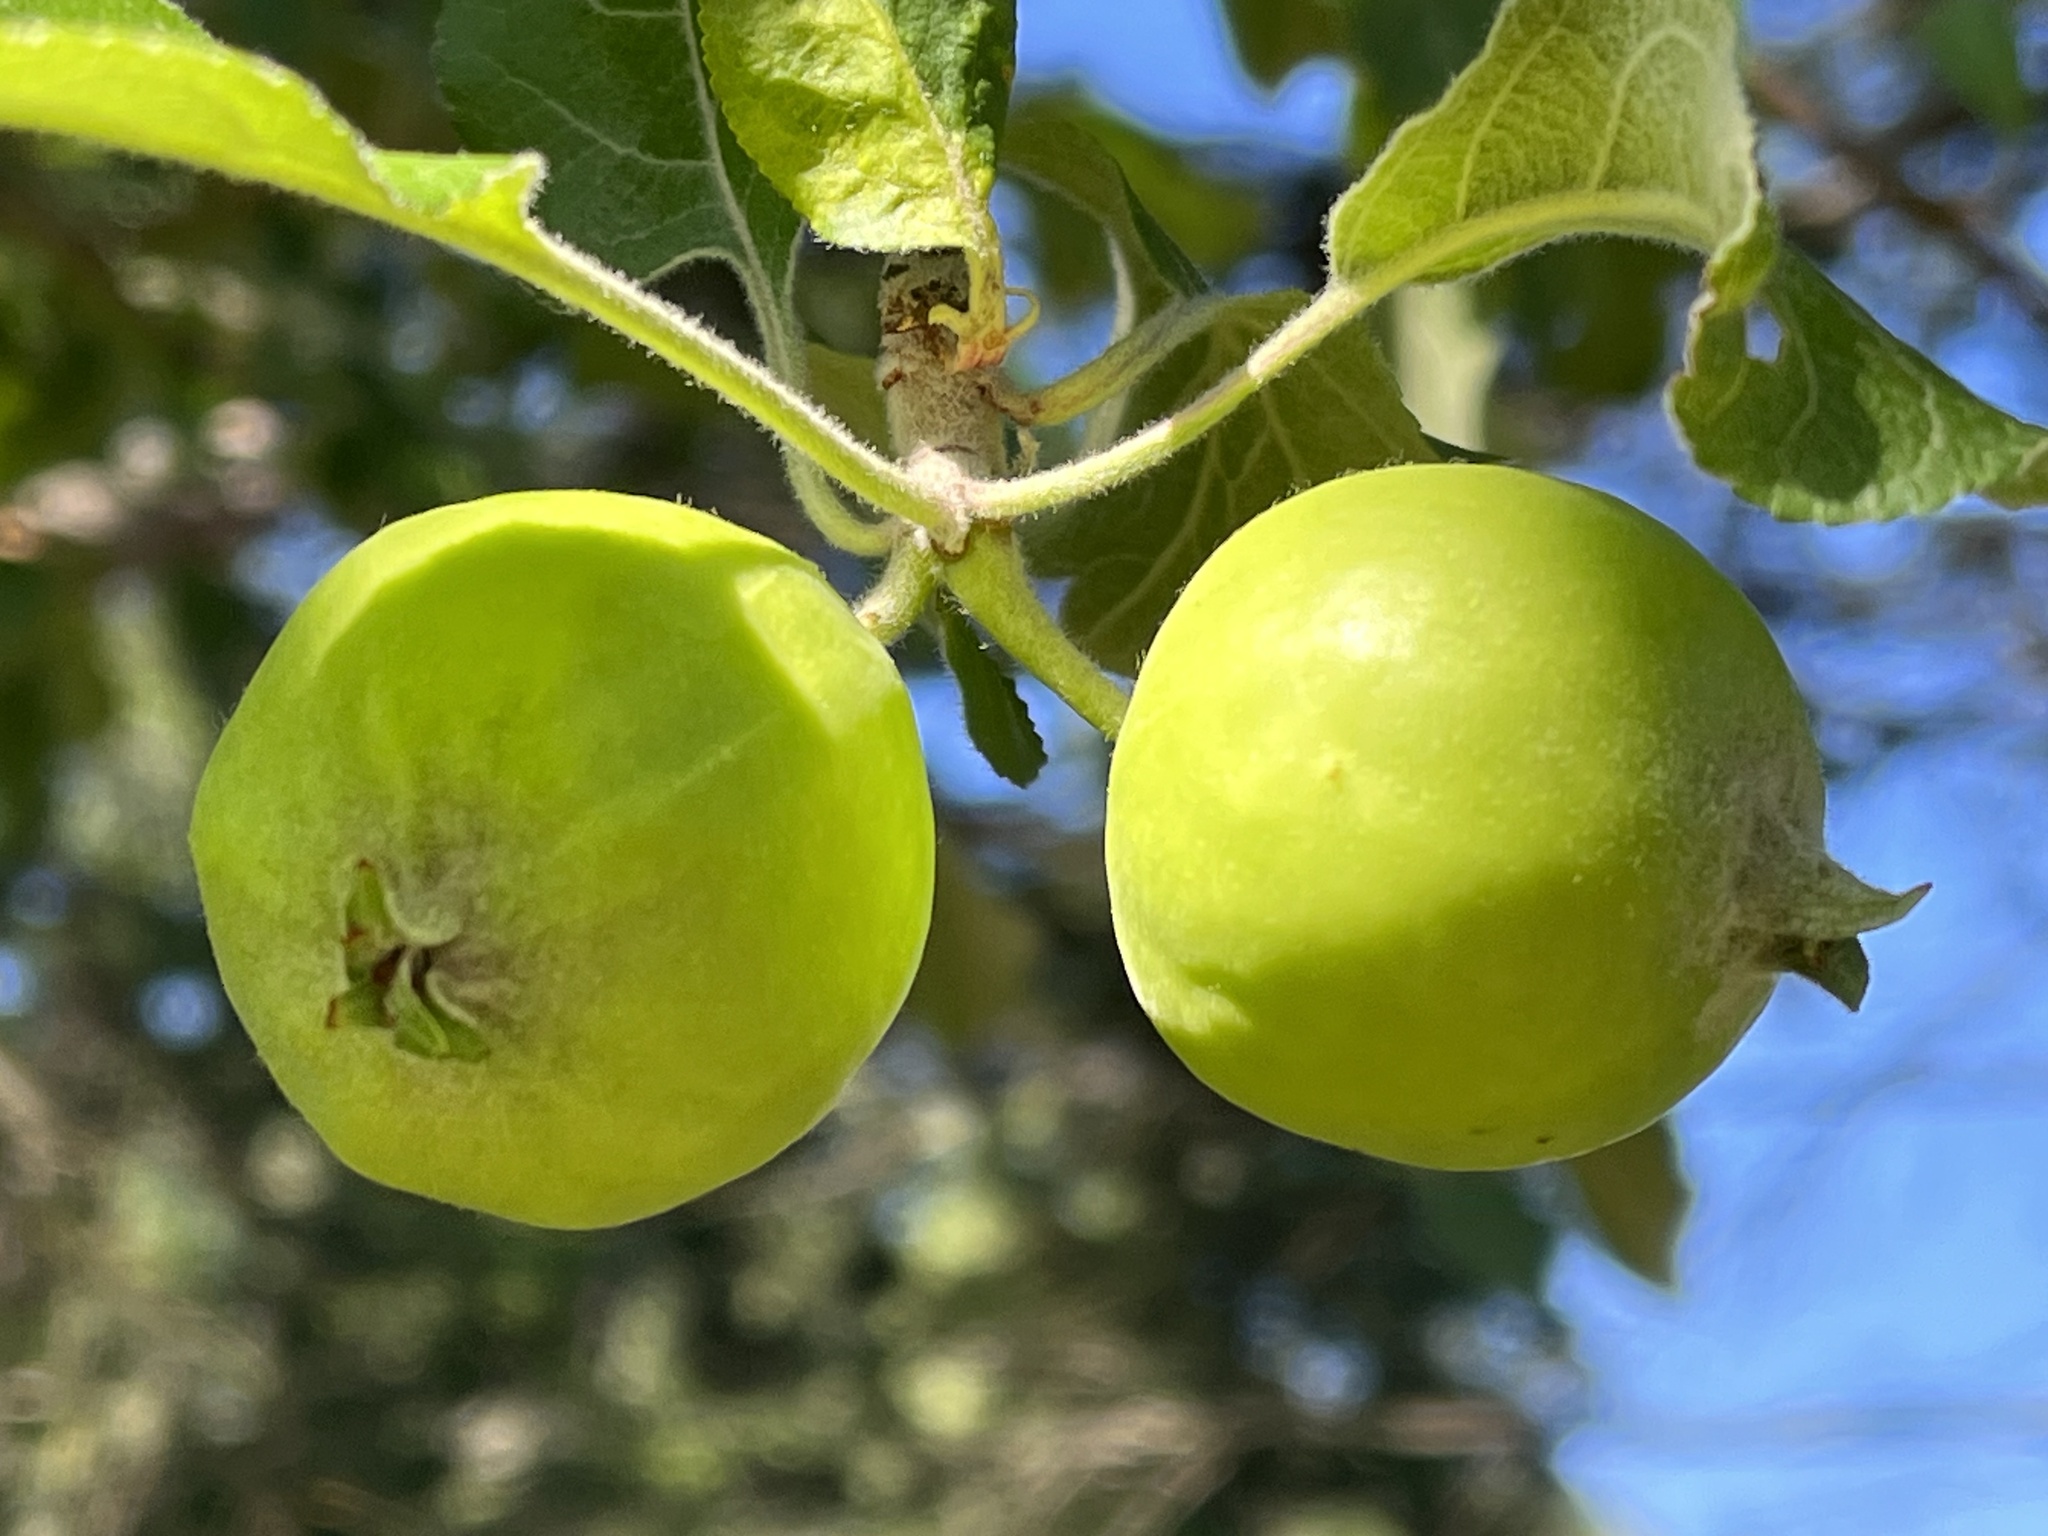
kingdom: Plantae
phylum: Tracheophyta
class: Magnoliopsida
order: Rosales
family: Rosaceae
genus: Malus
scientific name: Malus domestica
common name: Apple
